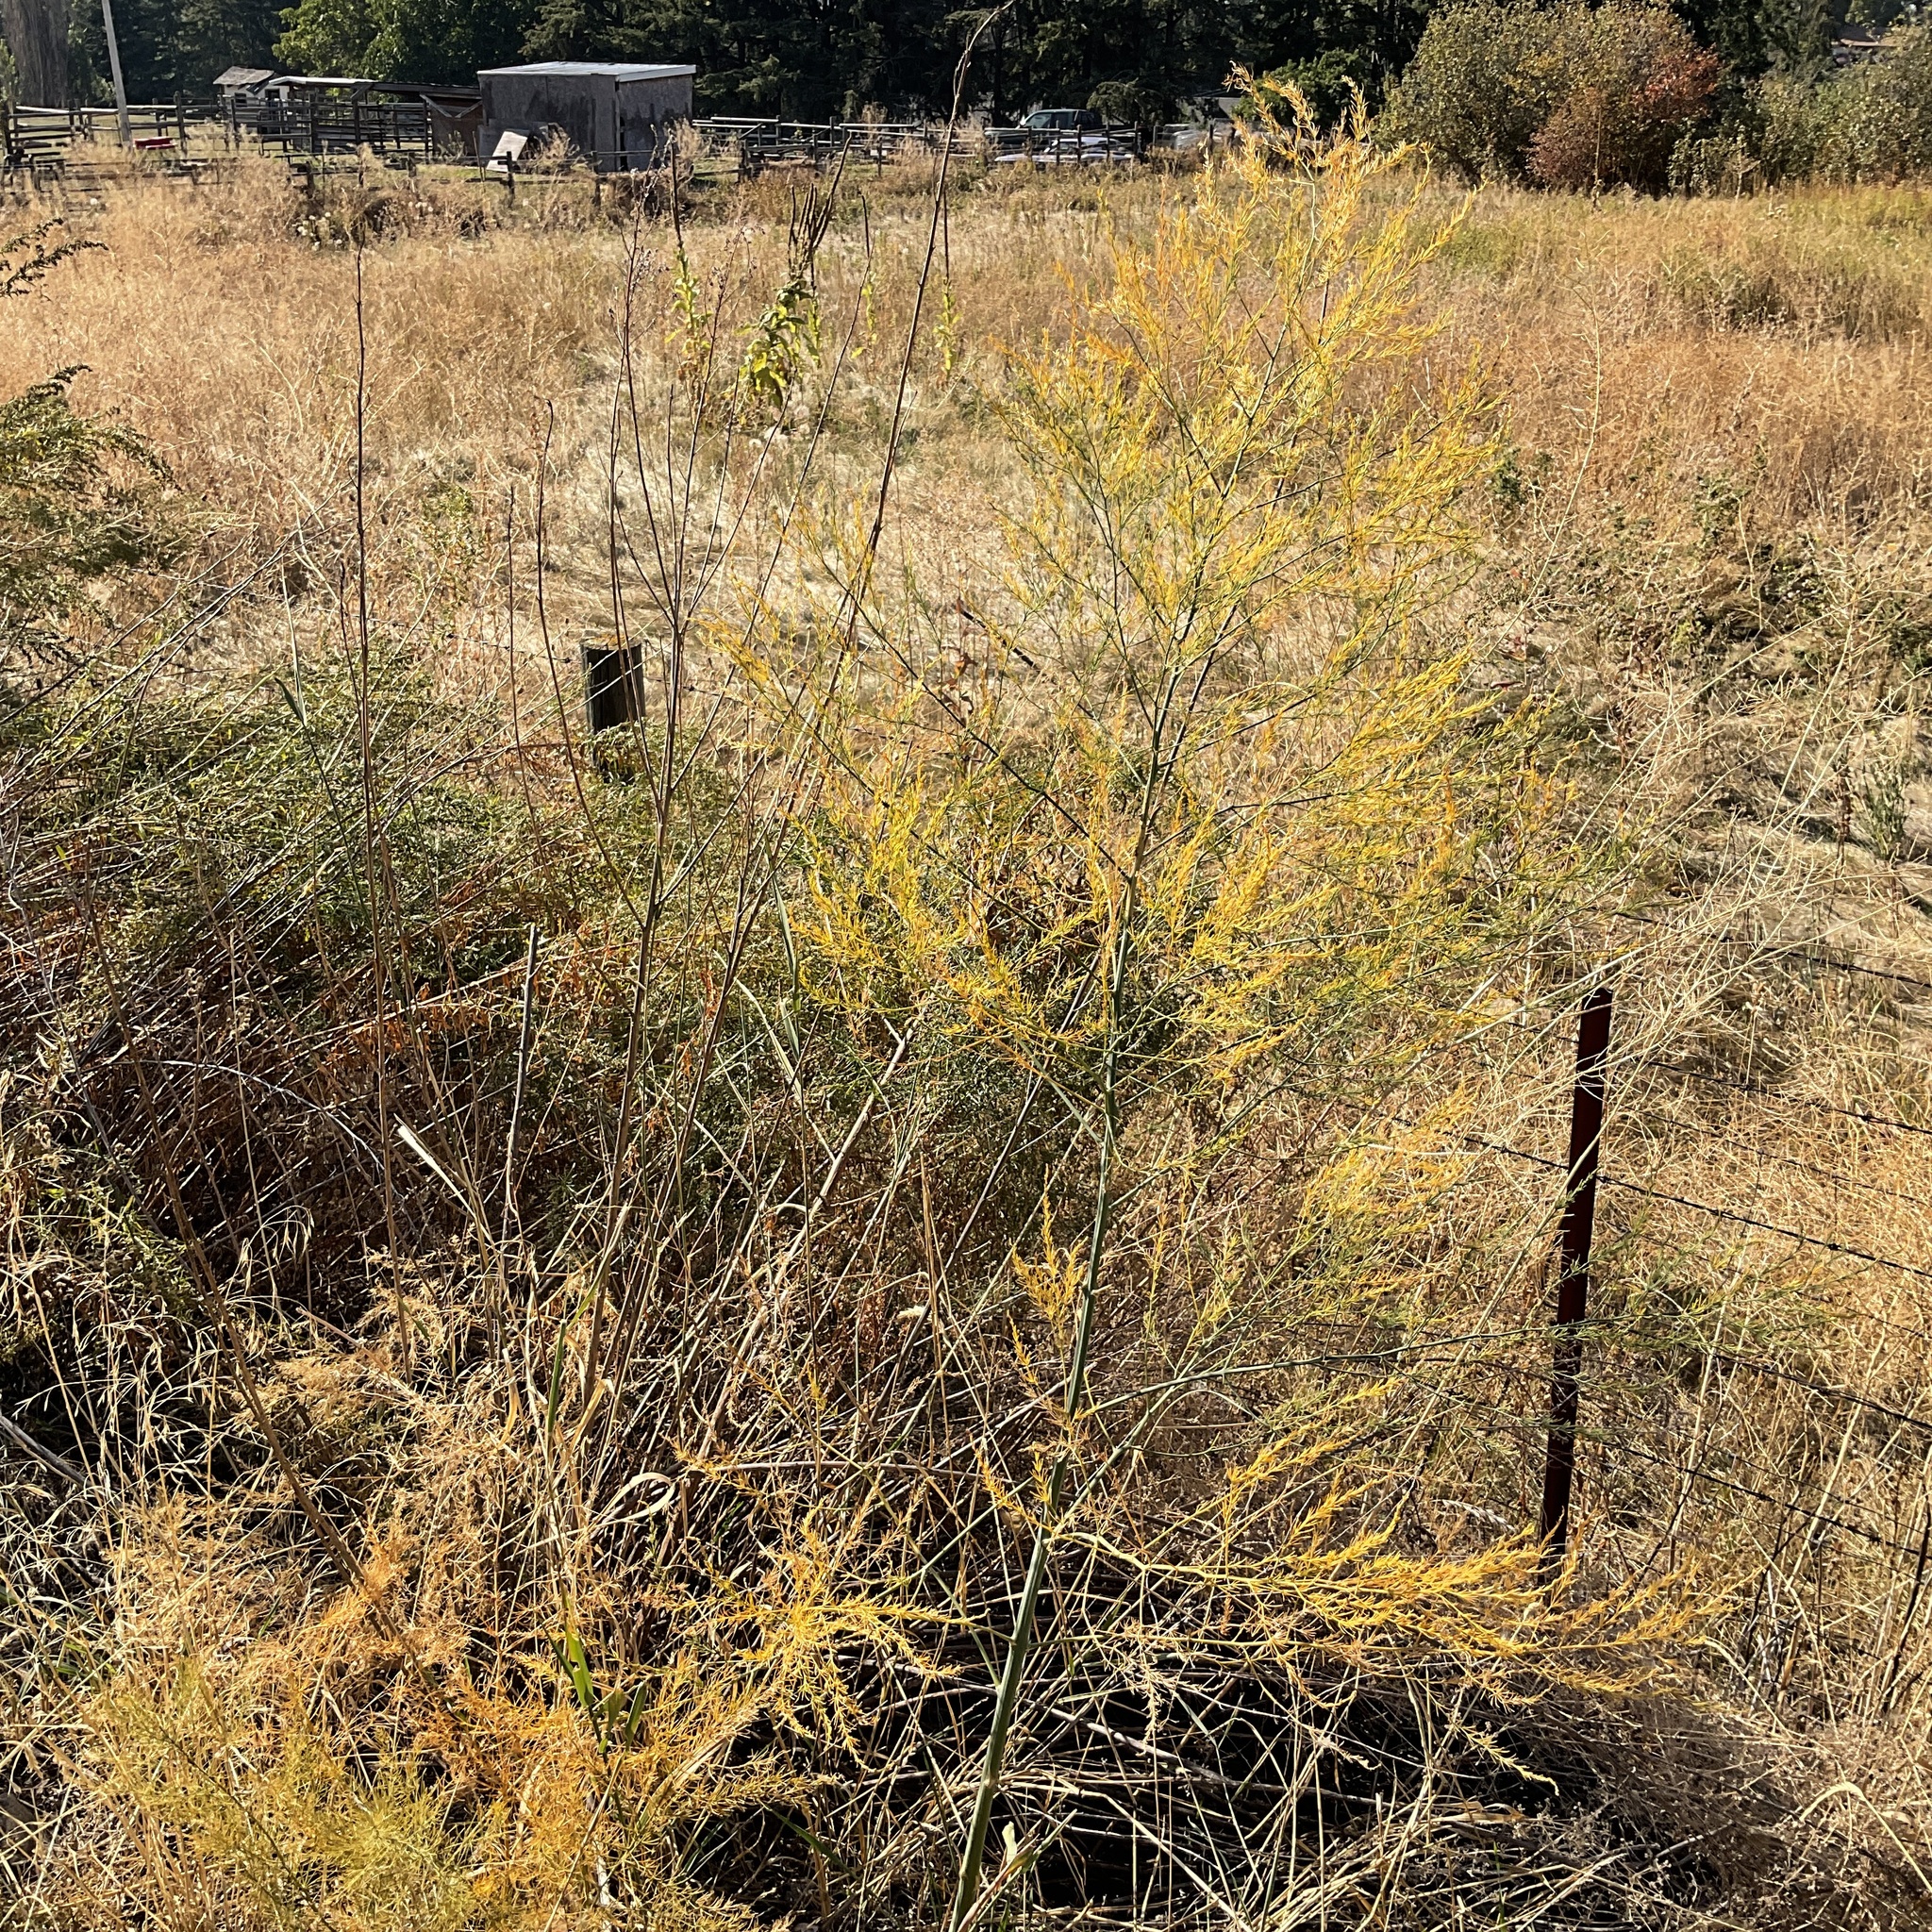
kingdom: Plantae
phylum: Tracheophyta
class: Liliopsida
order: Asparagales
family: Asparagaceae
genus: Asparagus
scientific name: Asparagus officinalis
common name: Garden asparagus
